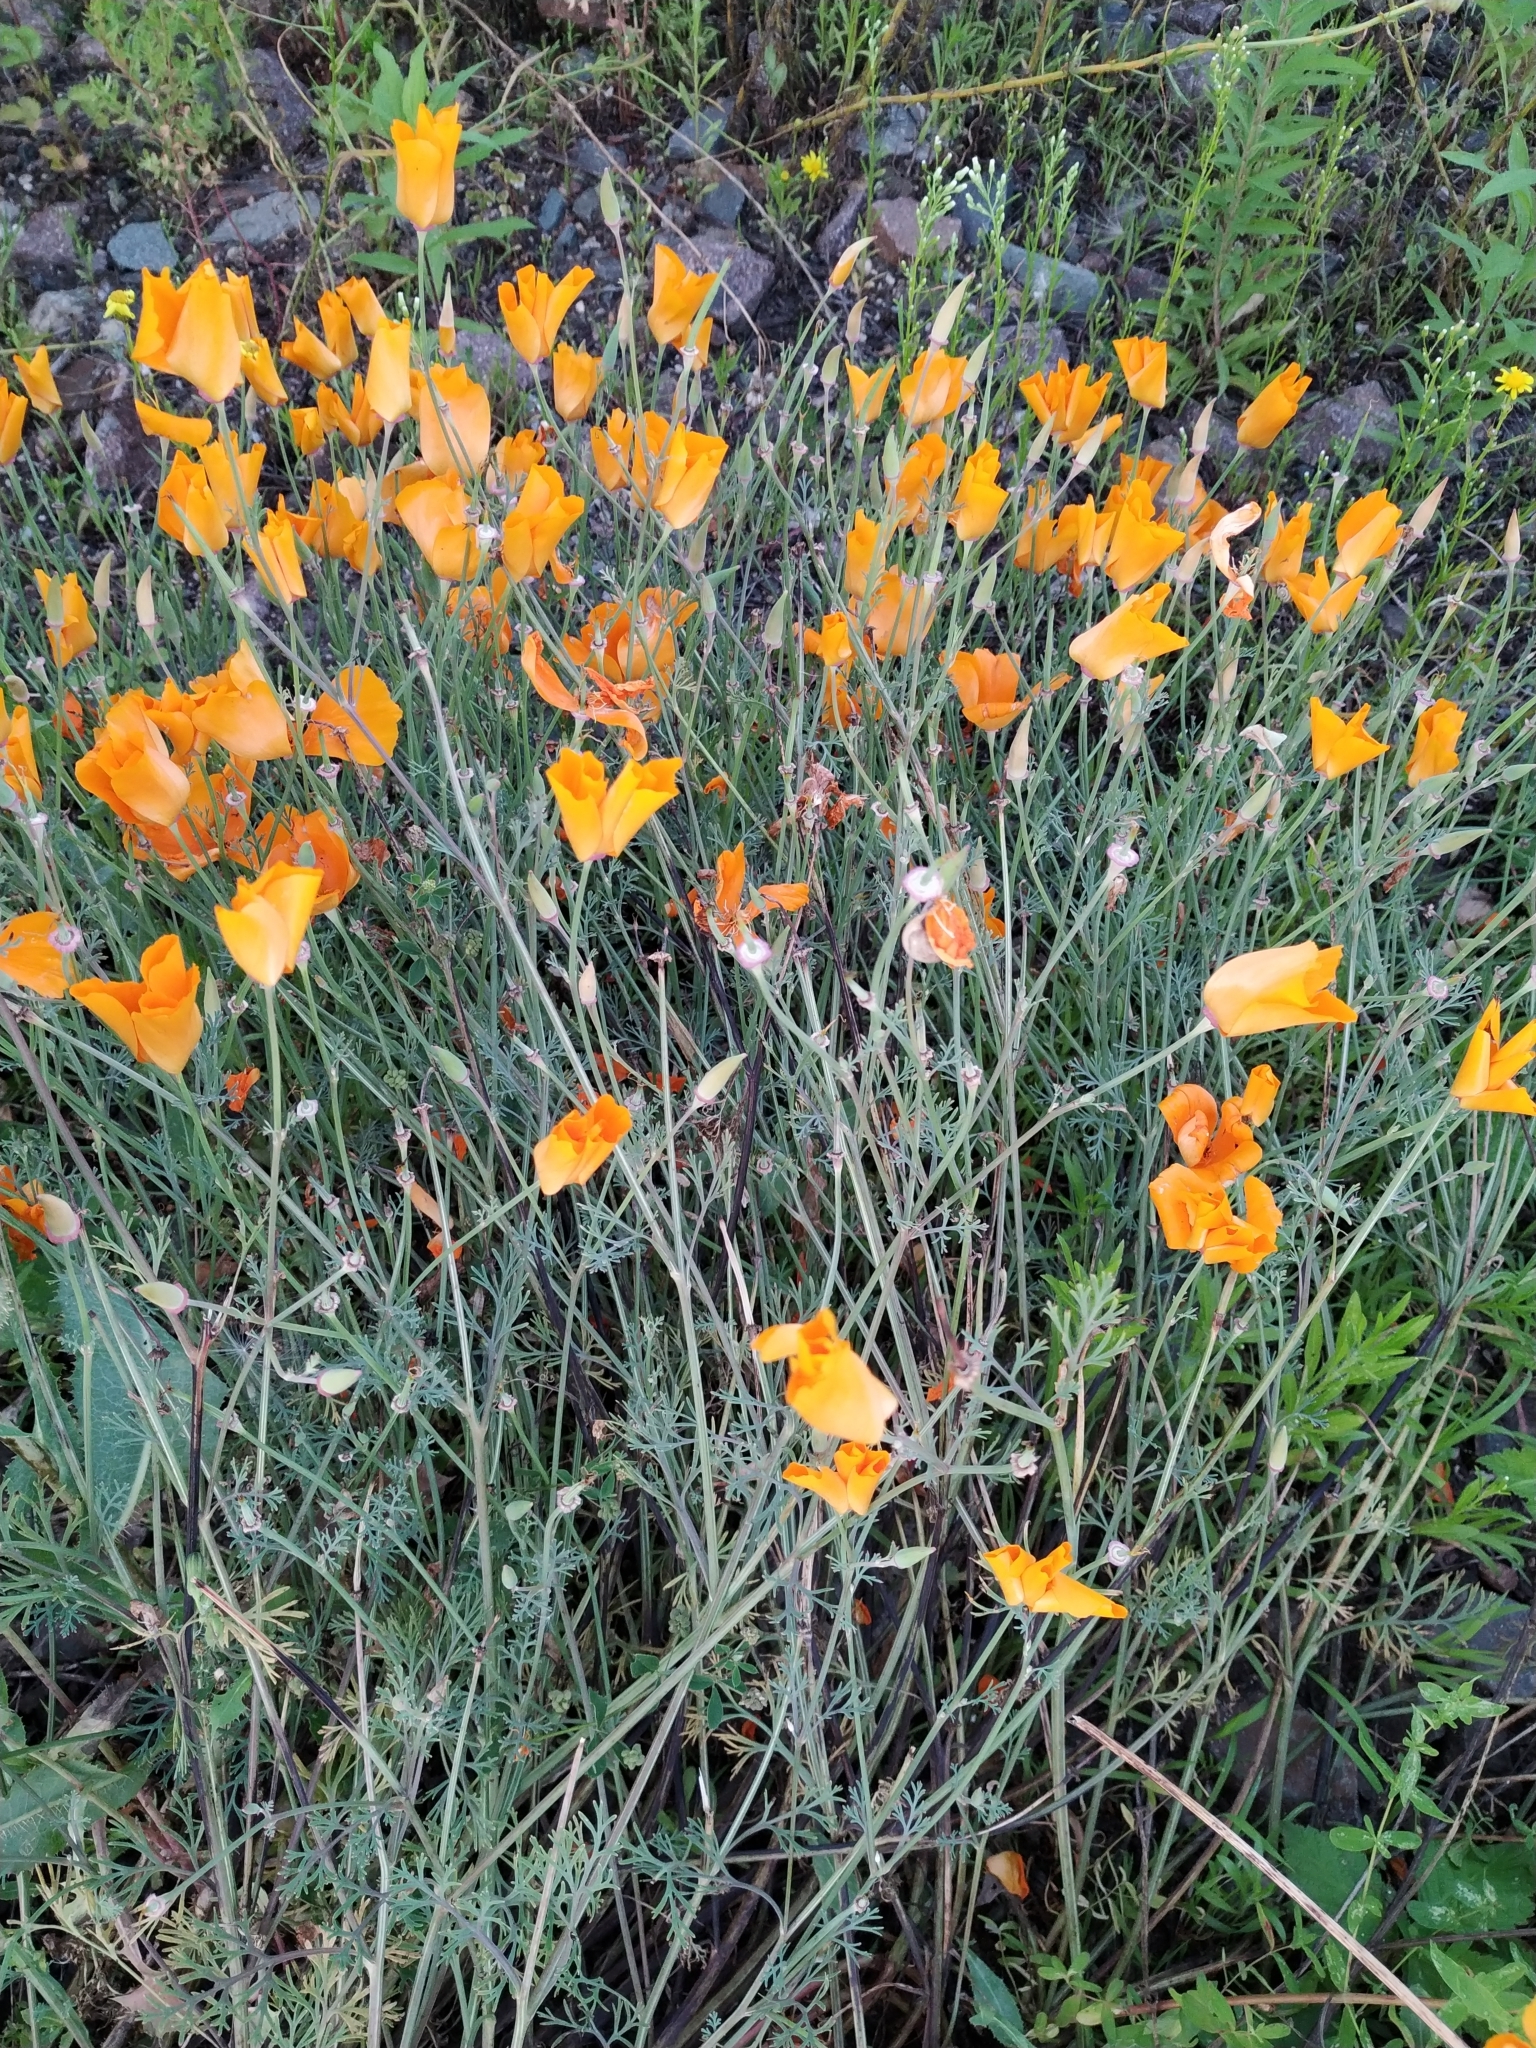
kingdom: Plantae
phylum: Tracheophyta
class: Magnoliopsida
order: Ranunculales
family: Papaveraceae
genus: Eschscholzia
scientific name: Eschscholzia californica
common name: California poppy
